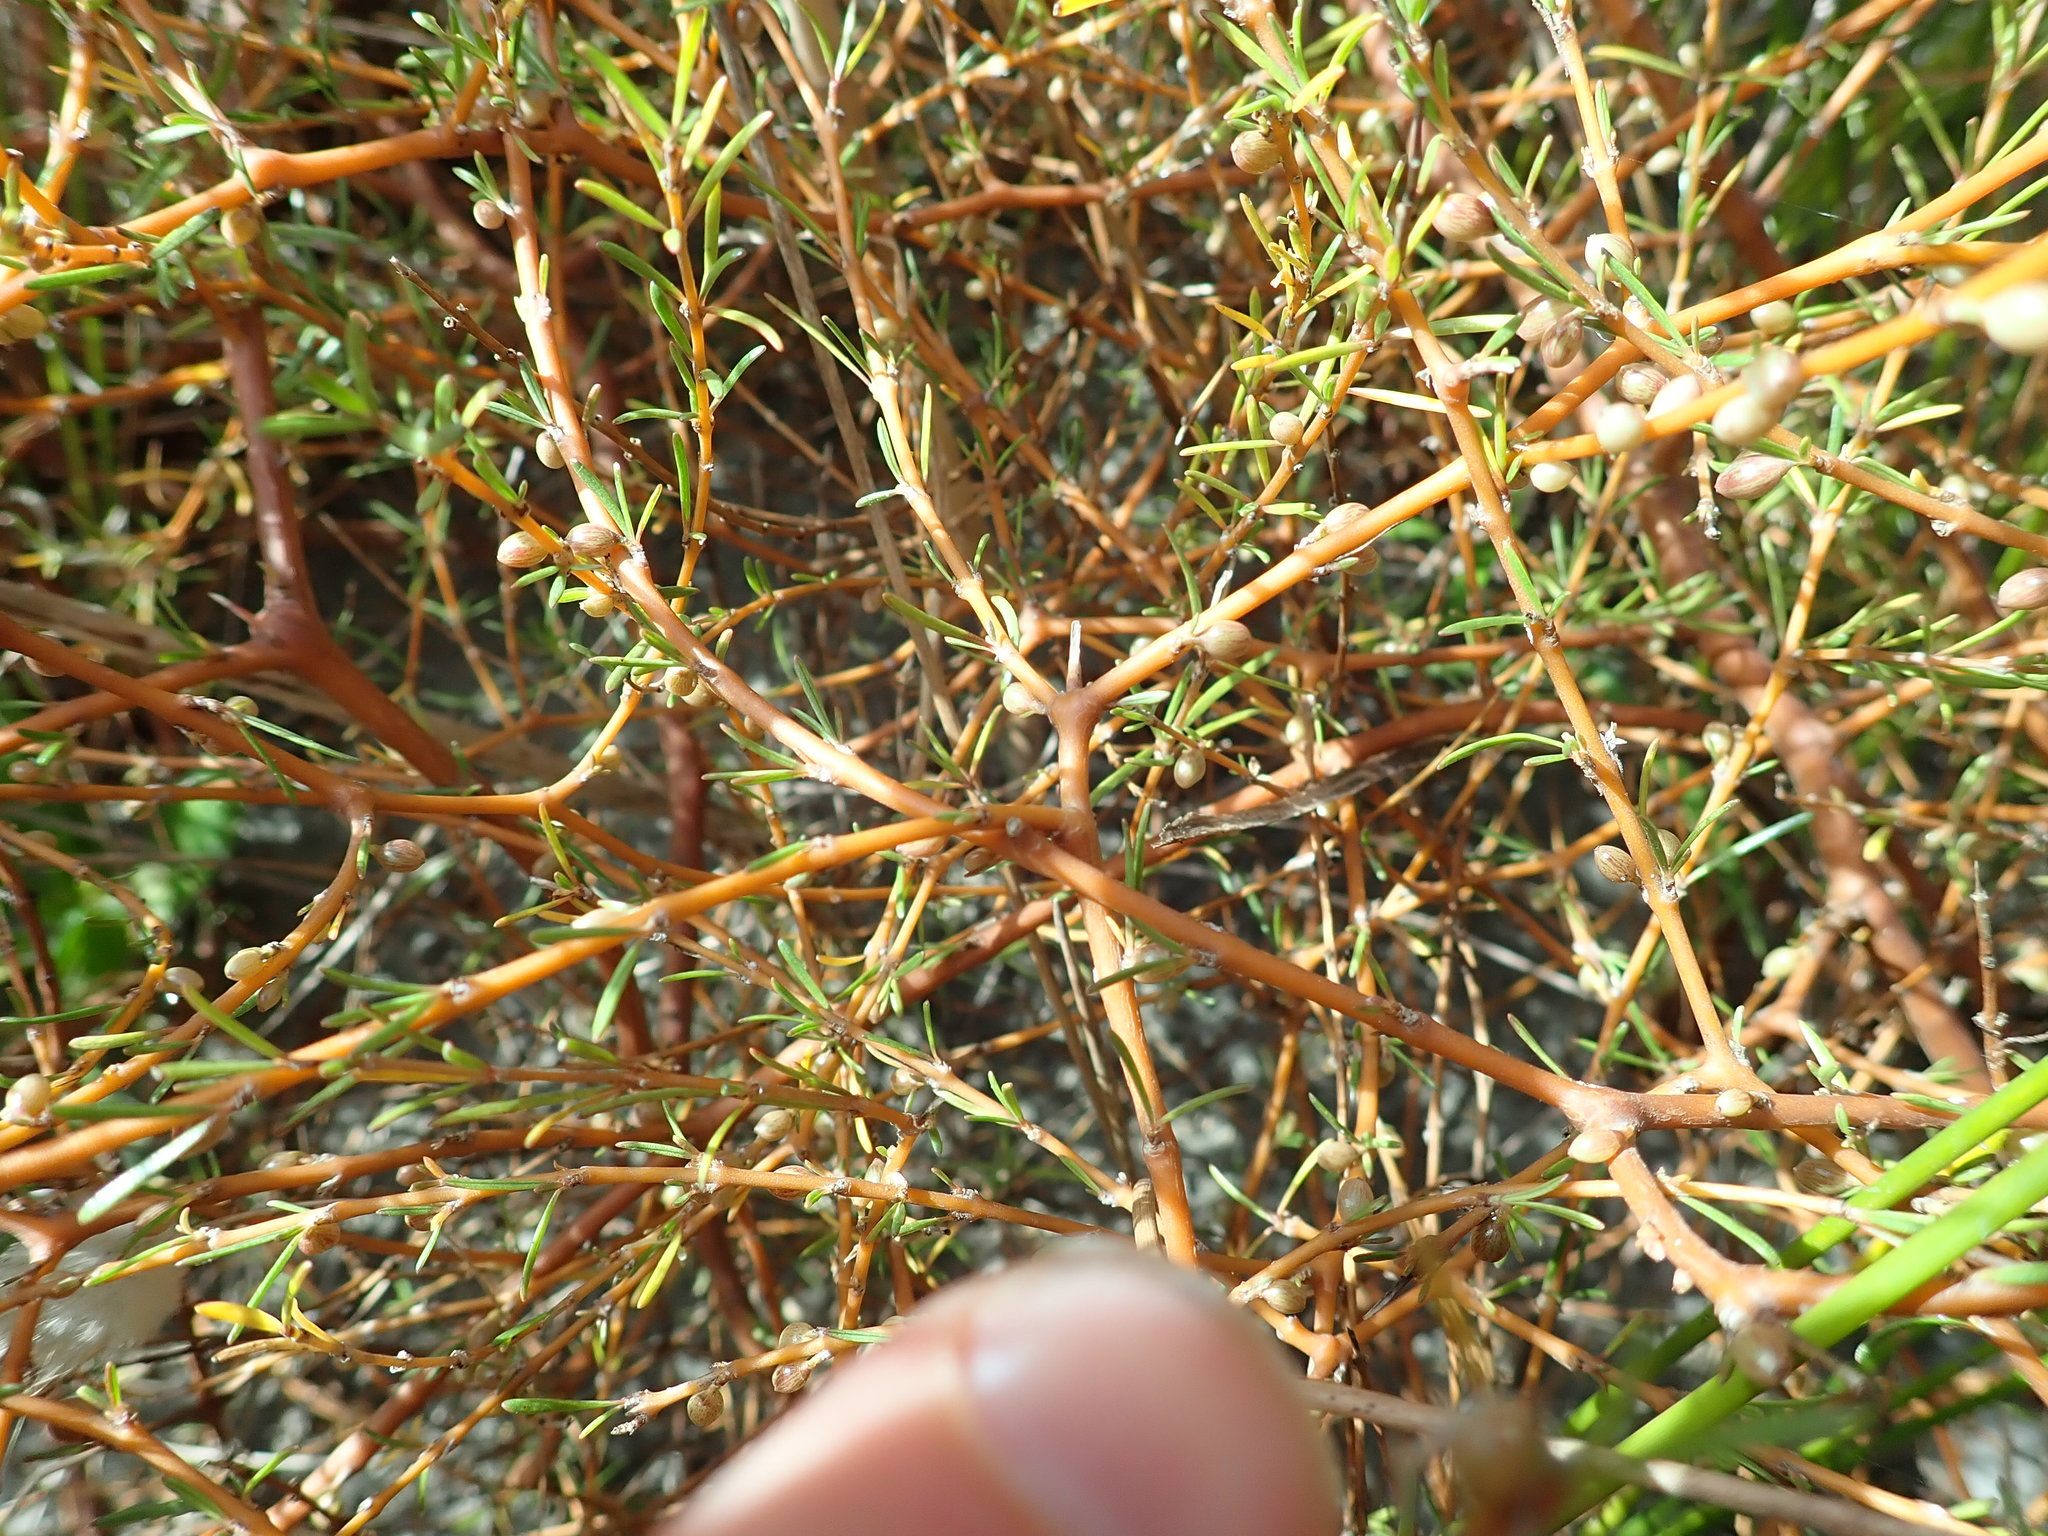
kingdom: Plantae
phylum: Tracheophyta
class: Magnoliopsida
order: Gentianales
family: Rubiaceae
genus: Coprosma
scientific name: Coprosma acerosa
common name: Sand coprosma
